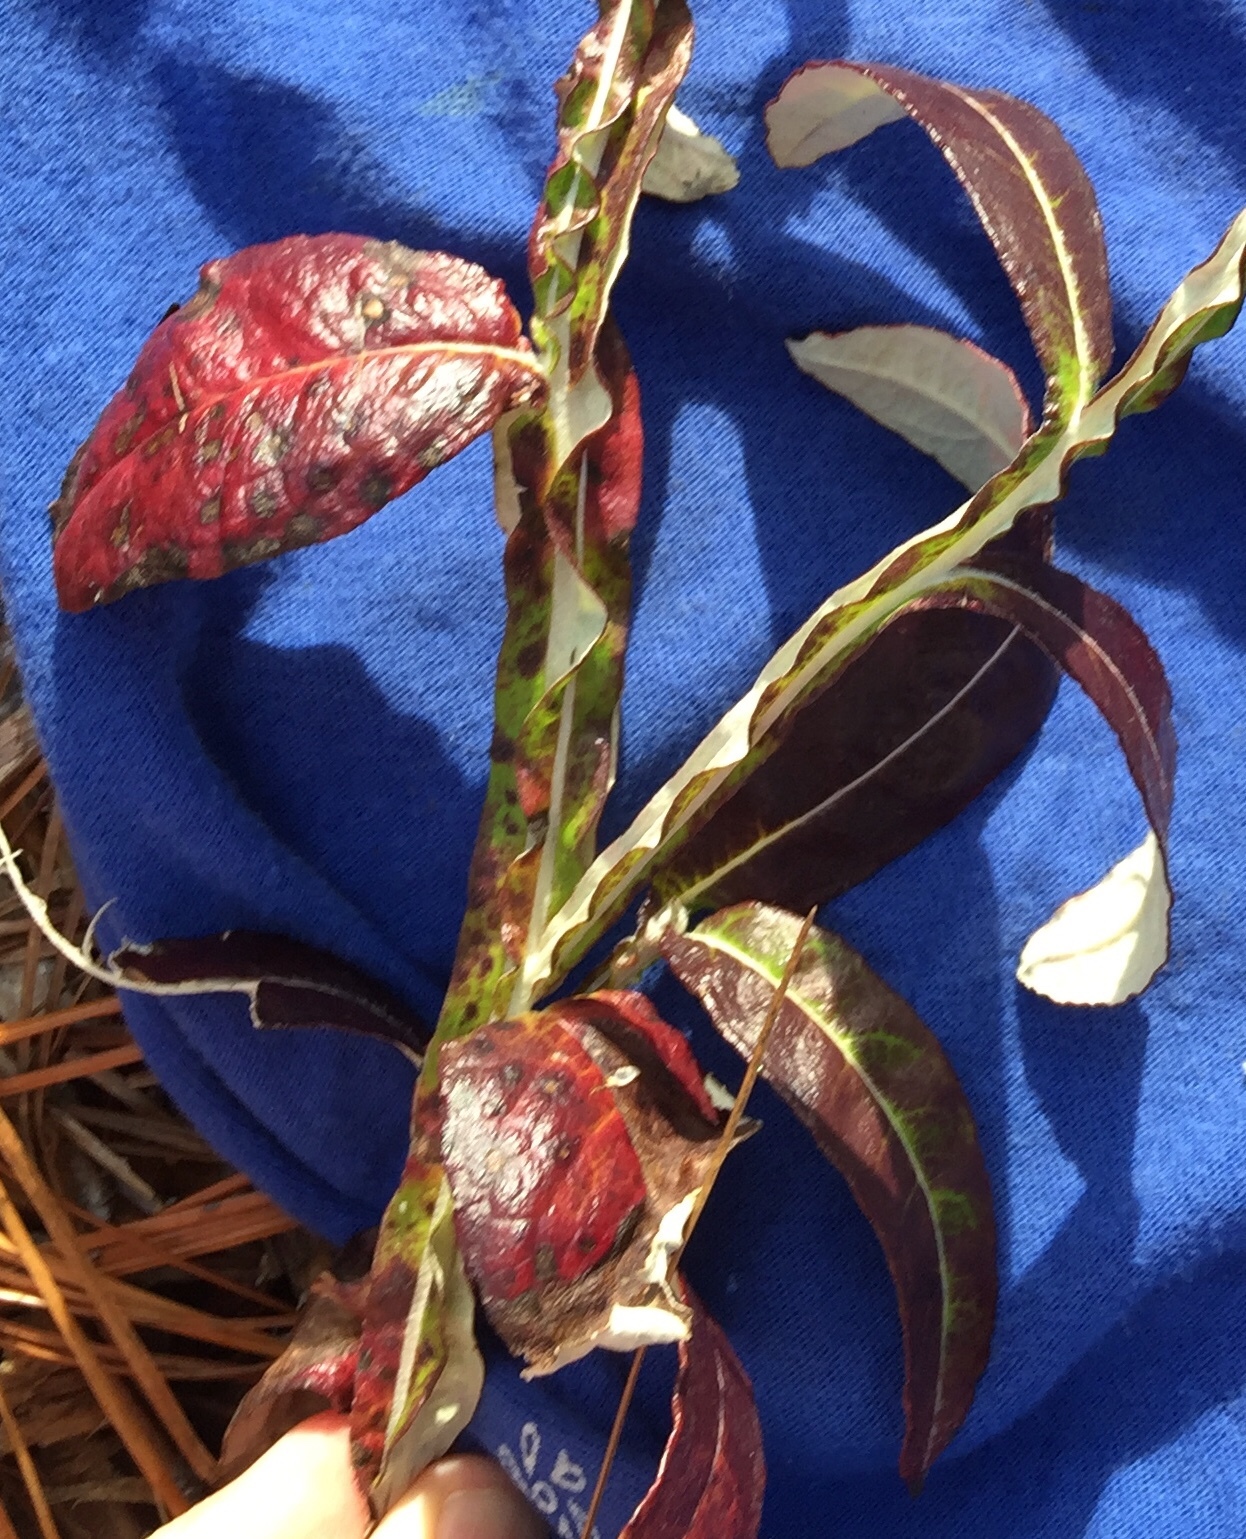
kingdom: Plantae
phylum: Tracheophyta
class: Magnoliopsida
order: Asterales
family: Asteraceae
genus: Pterocaulon
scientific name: Pterocaulon pycnostachyum
